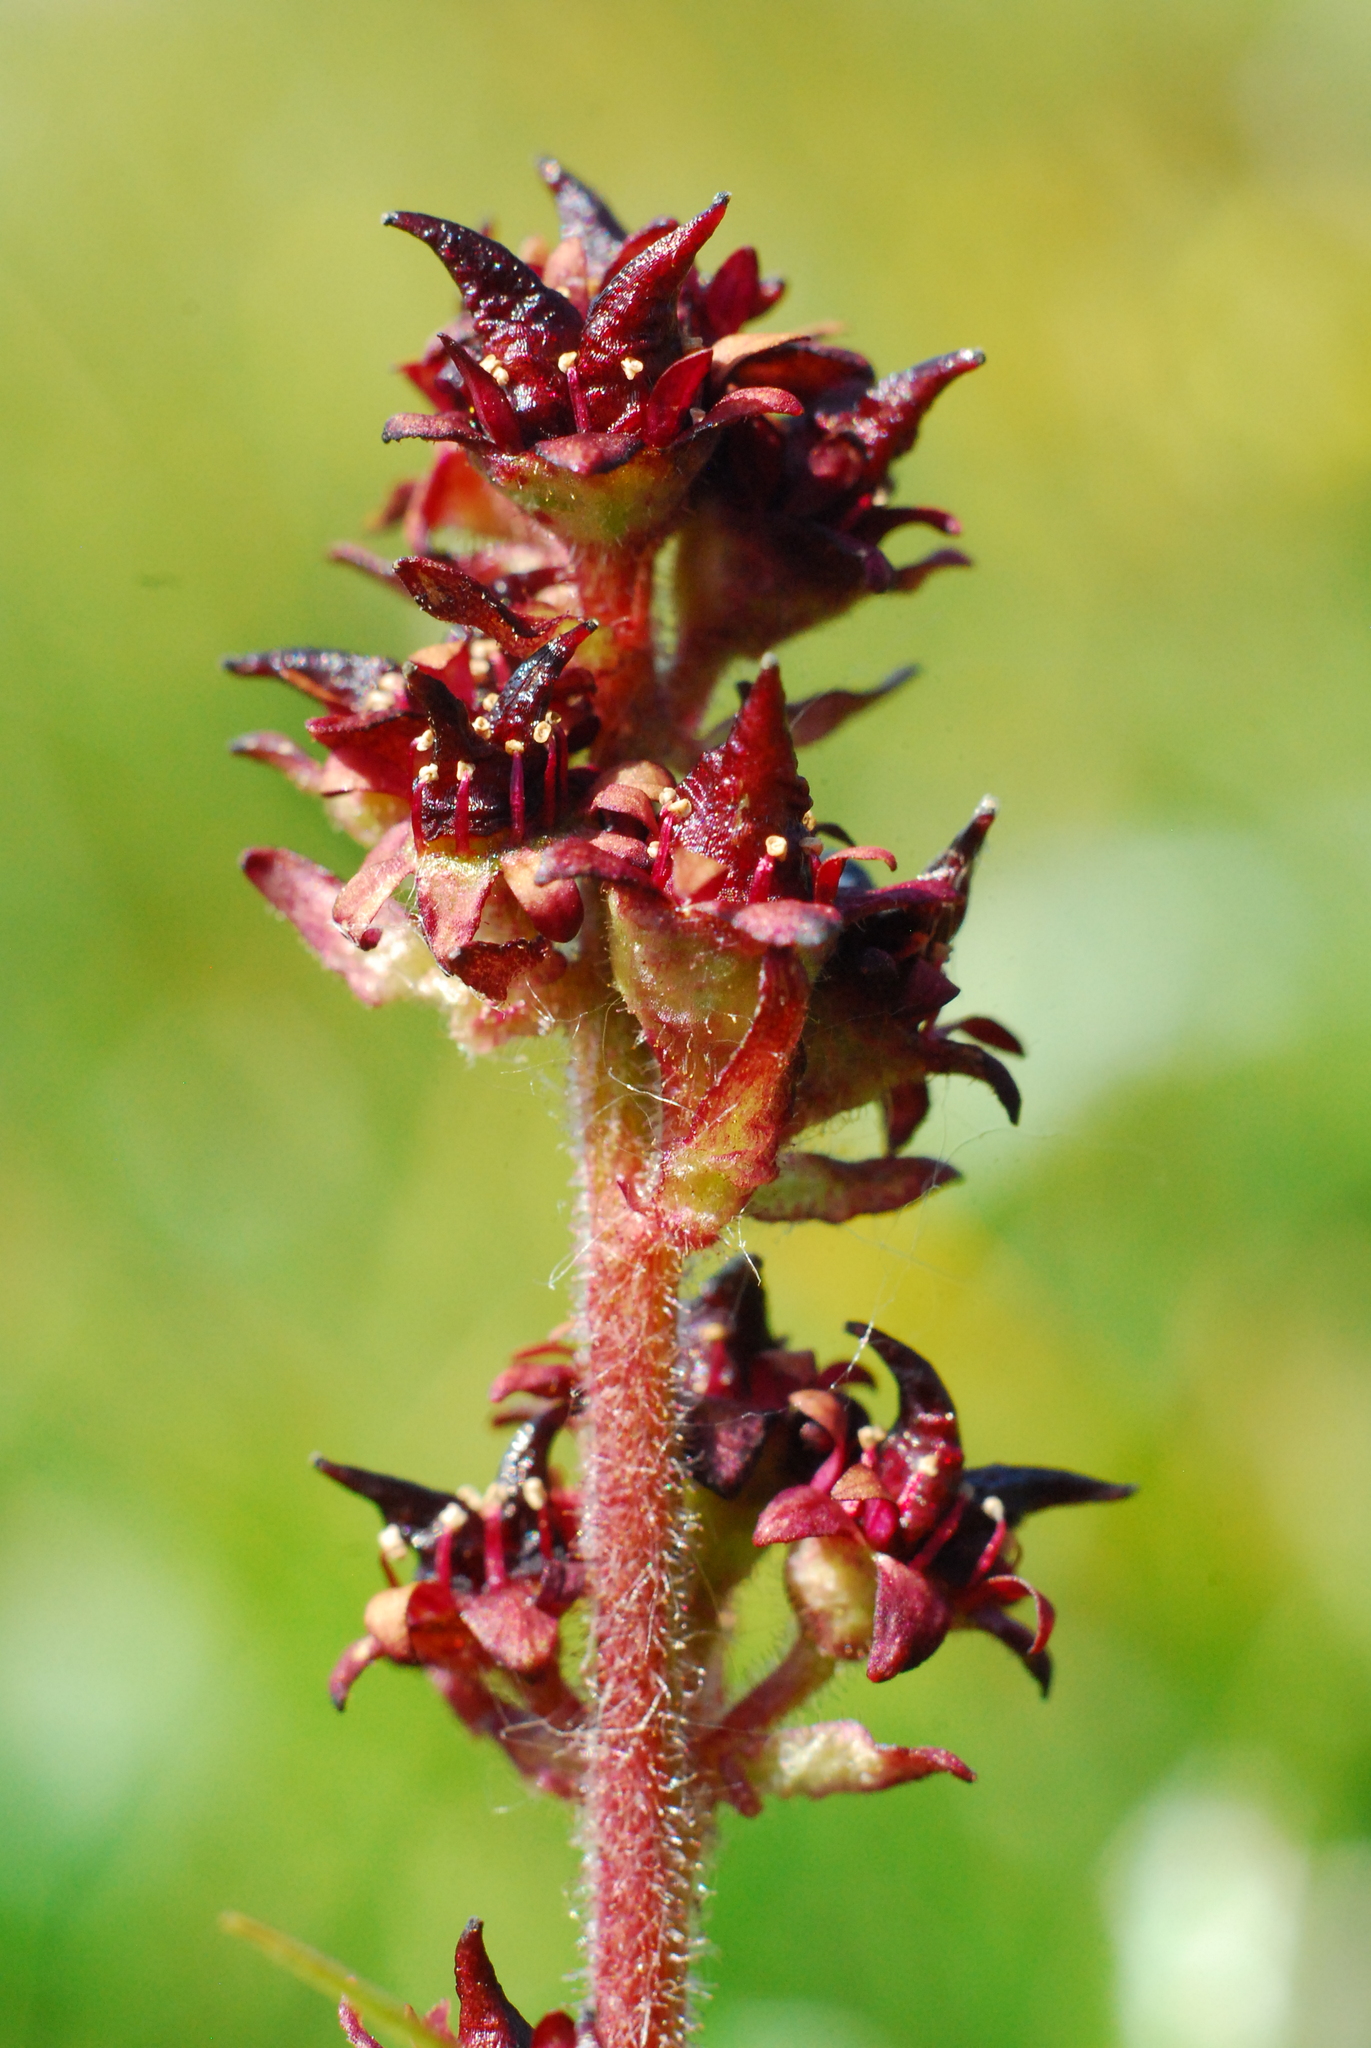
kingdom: Plantae
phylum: Tracheophyta
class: Magnoliopsida
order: Saxifragales
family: Saxifragaceae
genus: Micranthes
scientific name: Micranthes hieraciifolia
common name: Hawkweed-leaved saxifrage
